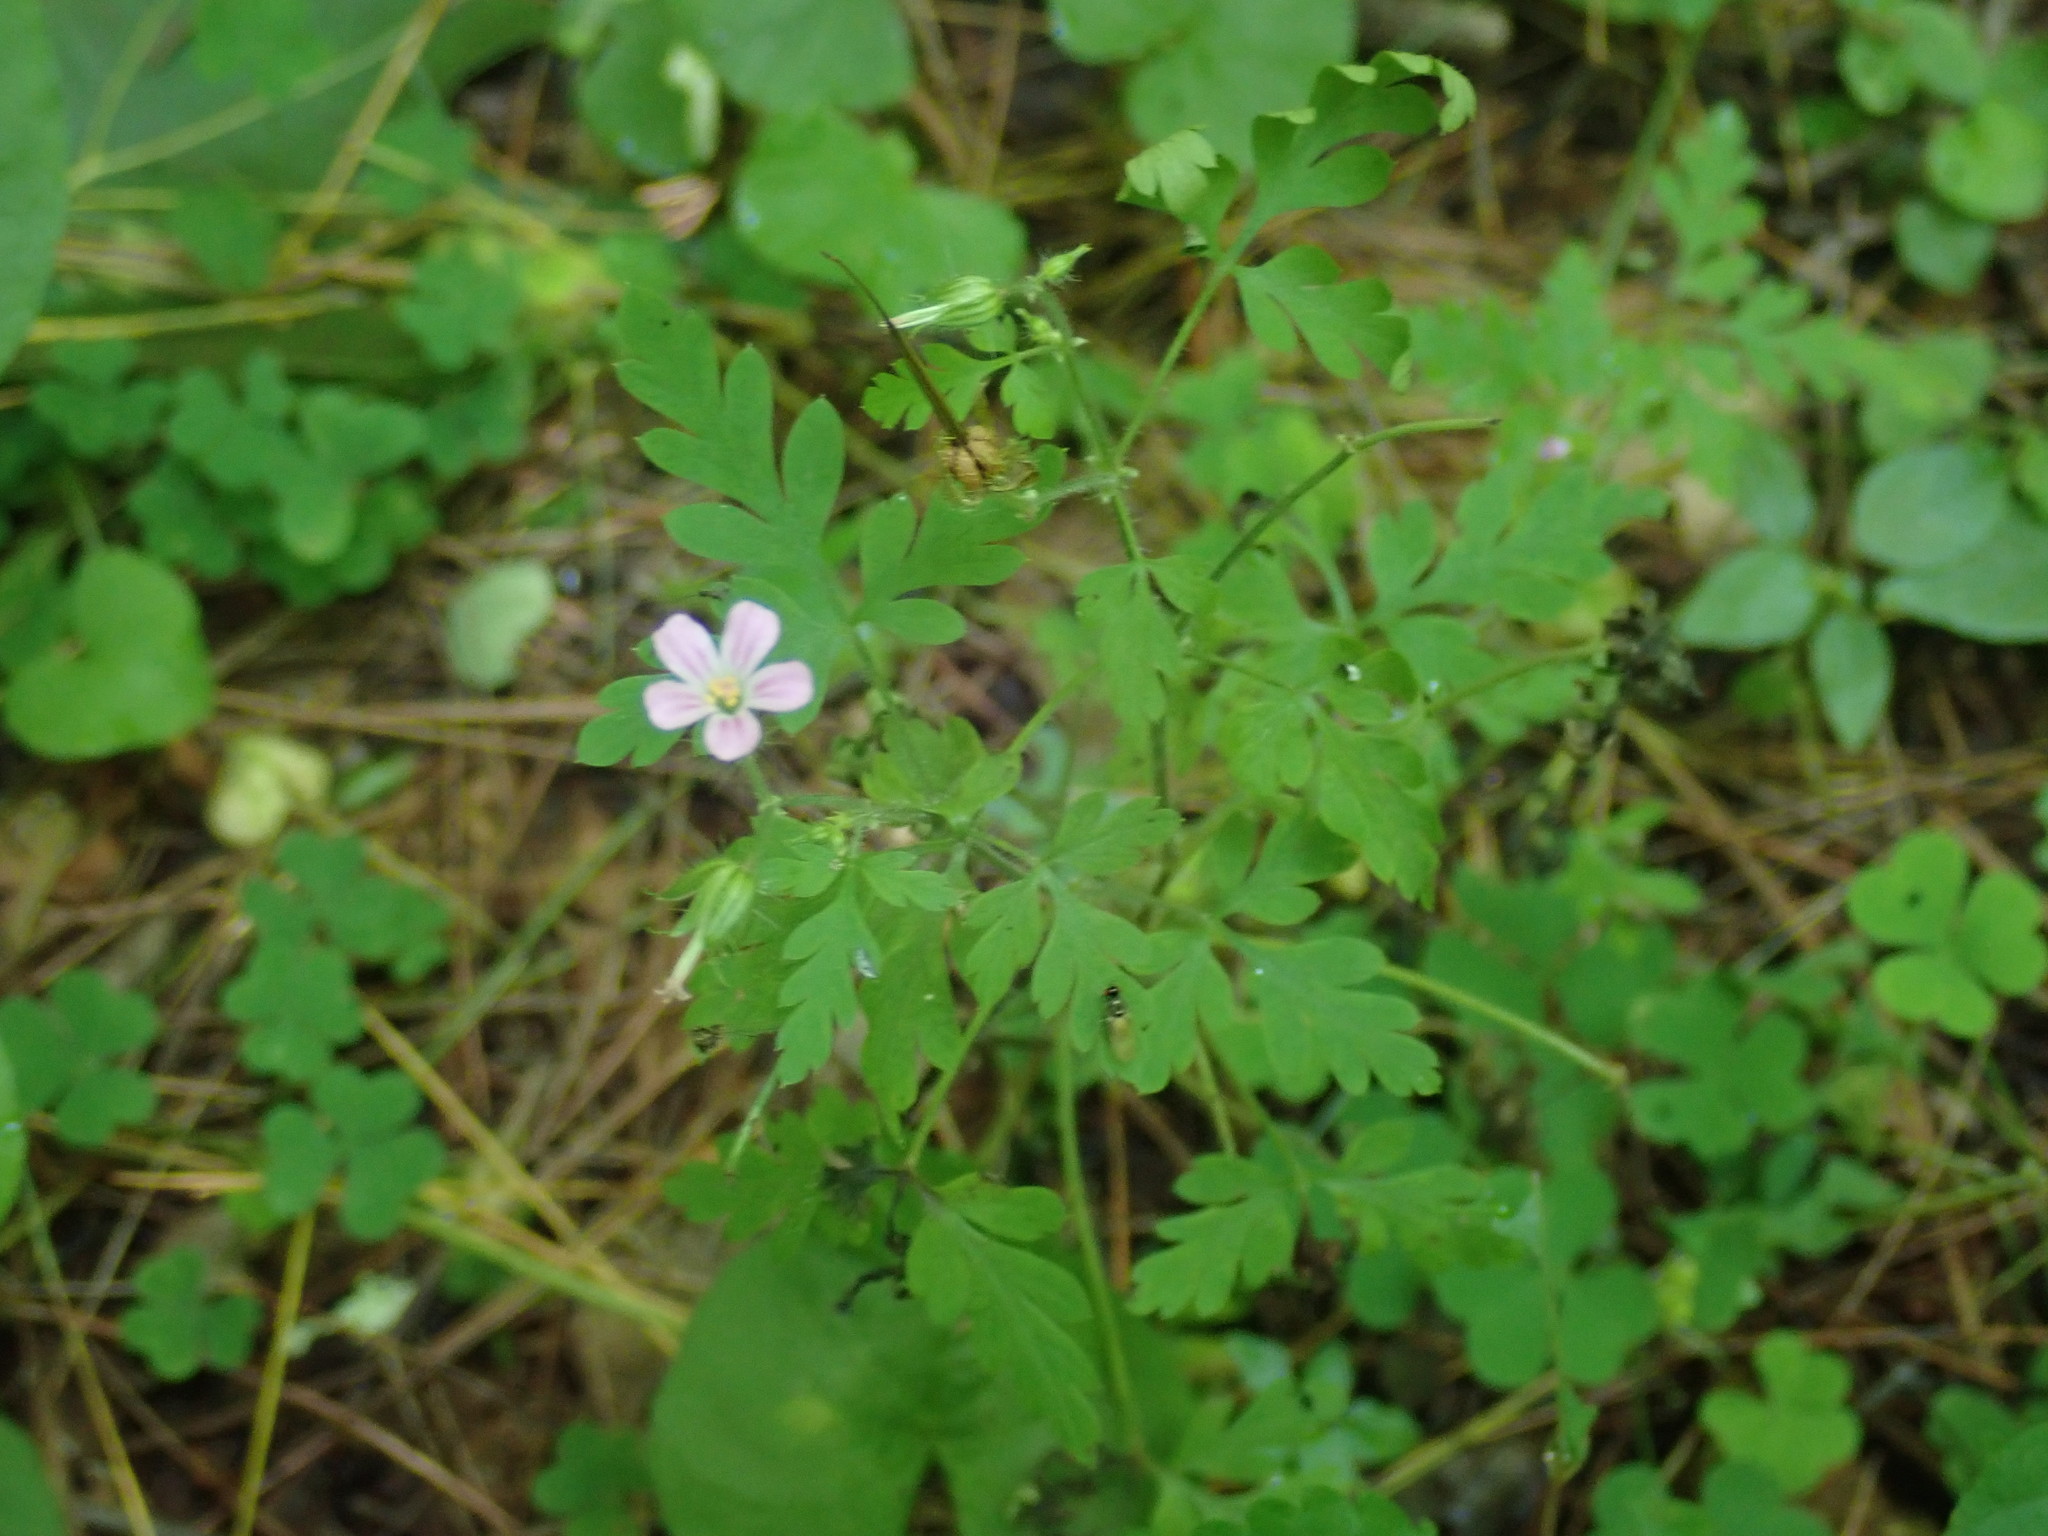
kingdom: Plantae
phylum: Tracheophyta
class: Magnoliopsida
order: Geraniales
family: Geraniaceae
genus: Geranium
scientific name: Geranium robertianum
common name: Herb-robert
